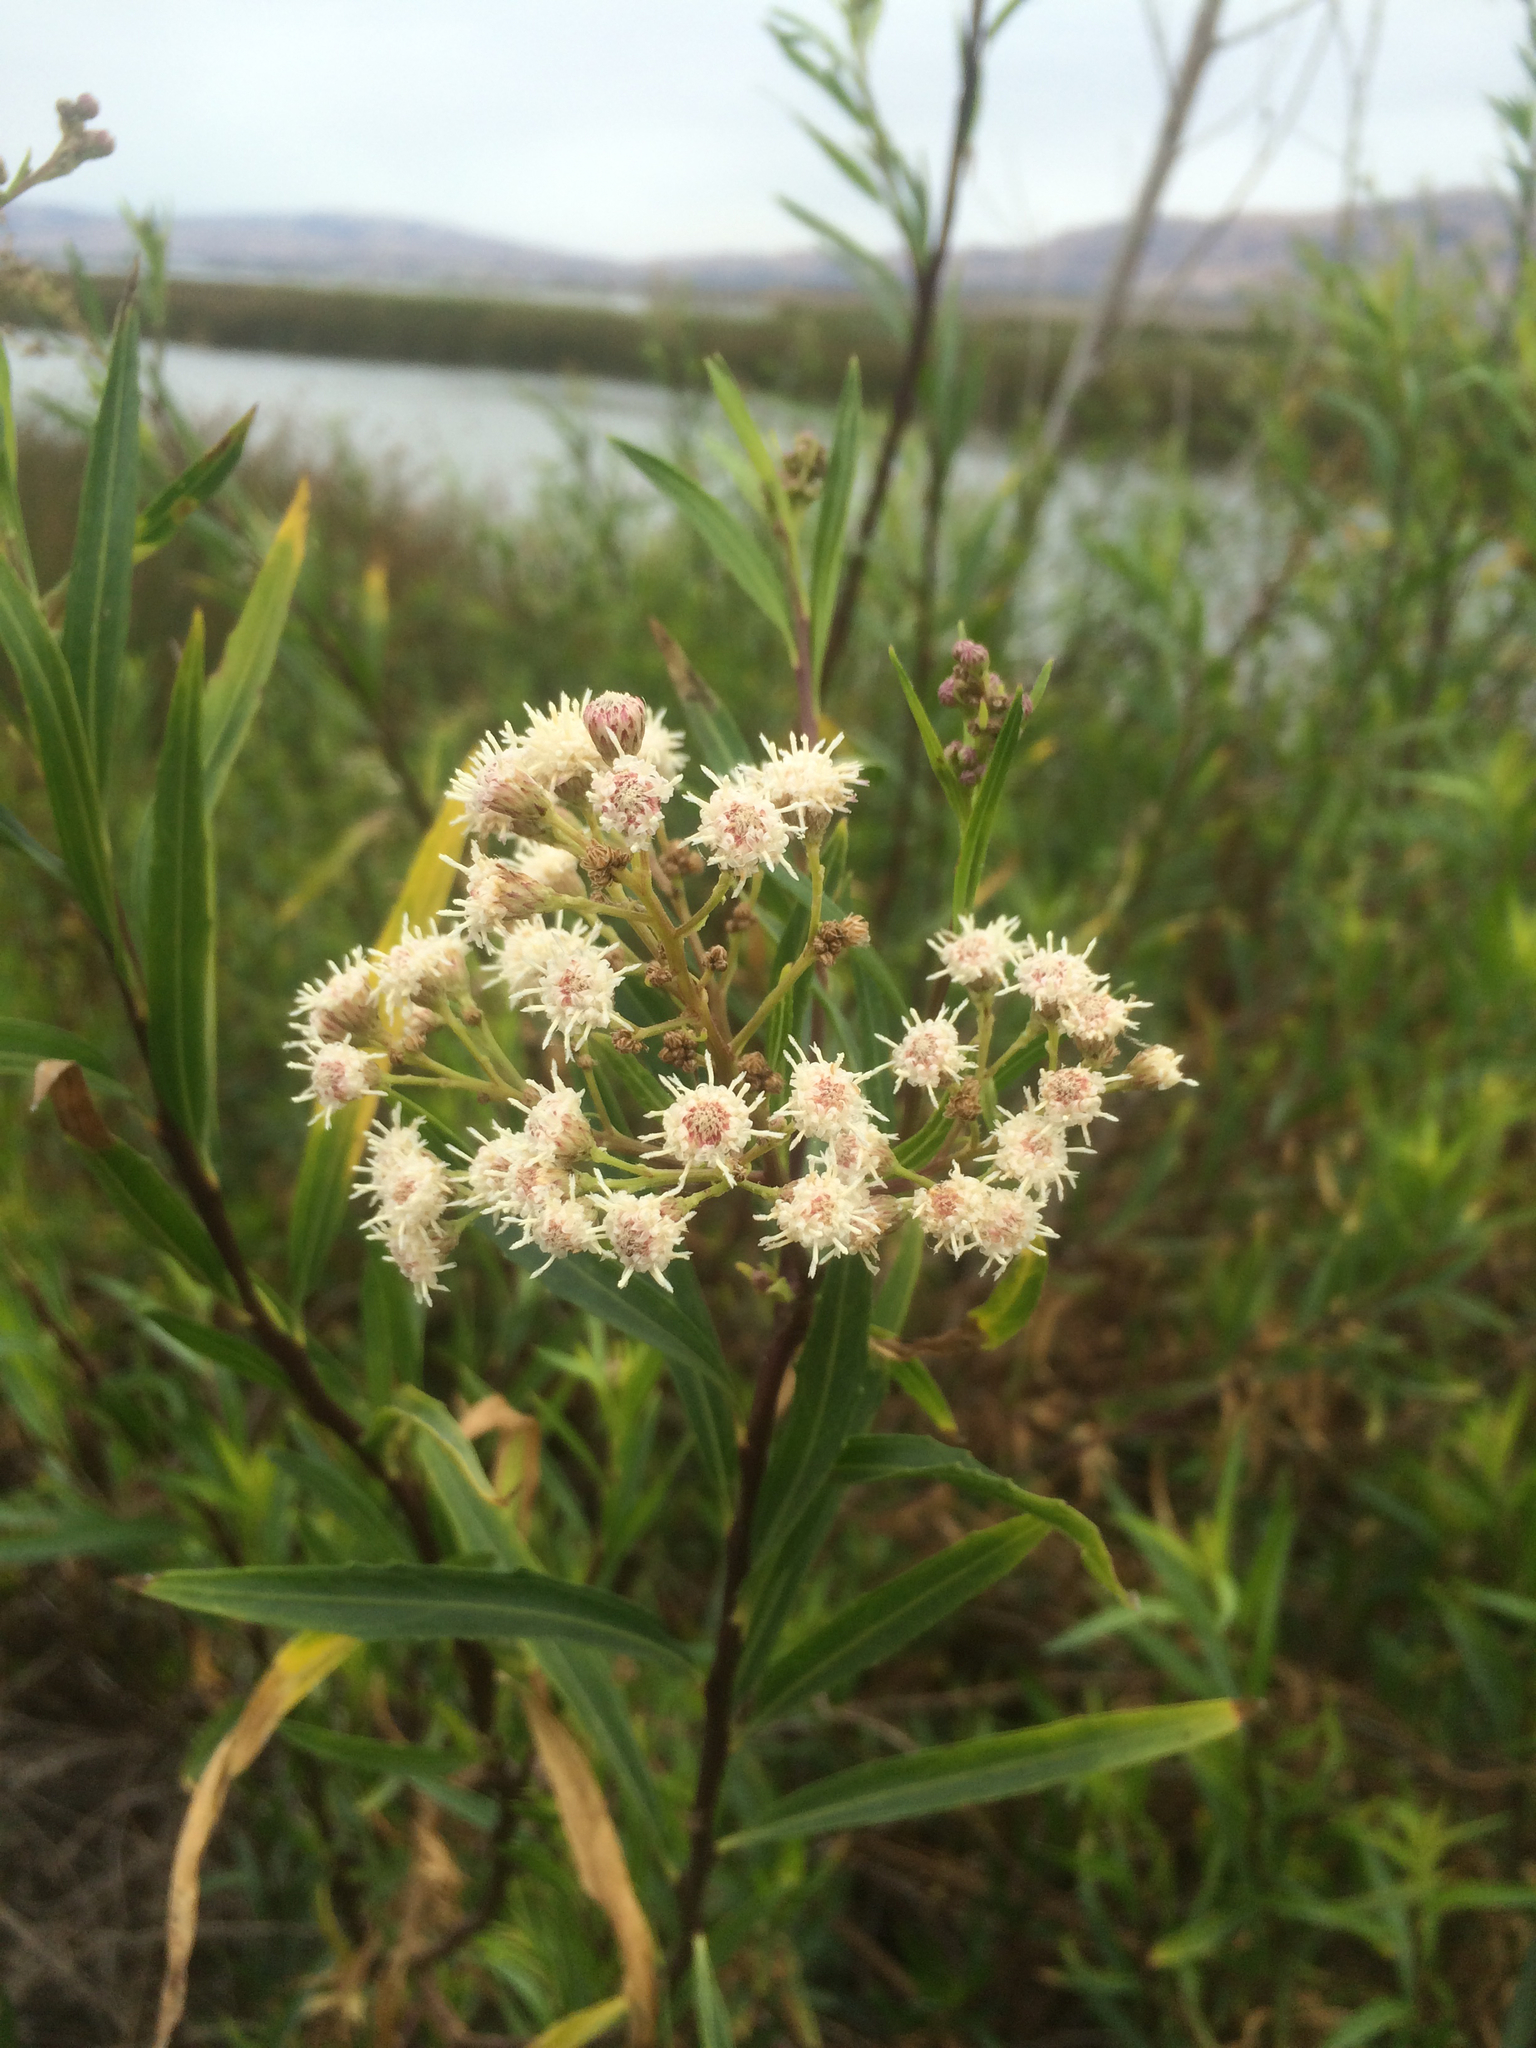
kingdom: Plantae
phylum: Tracheophyta
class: Magnoliopsida
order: Asterales
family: Asteraceae
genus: Baccharis
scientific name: Baccharis salicifolia
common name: Sticky baccharis
